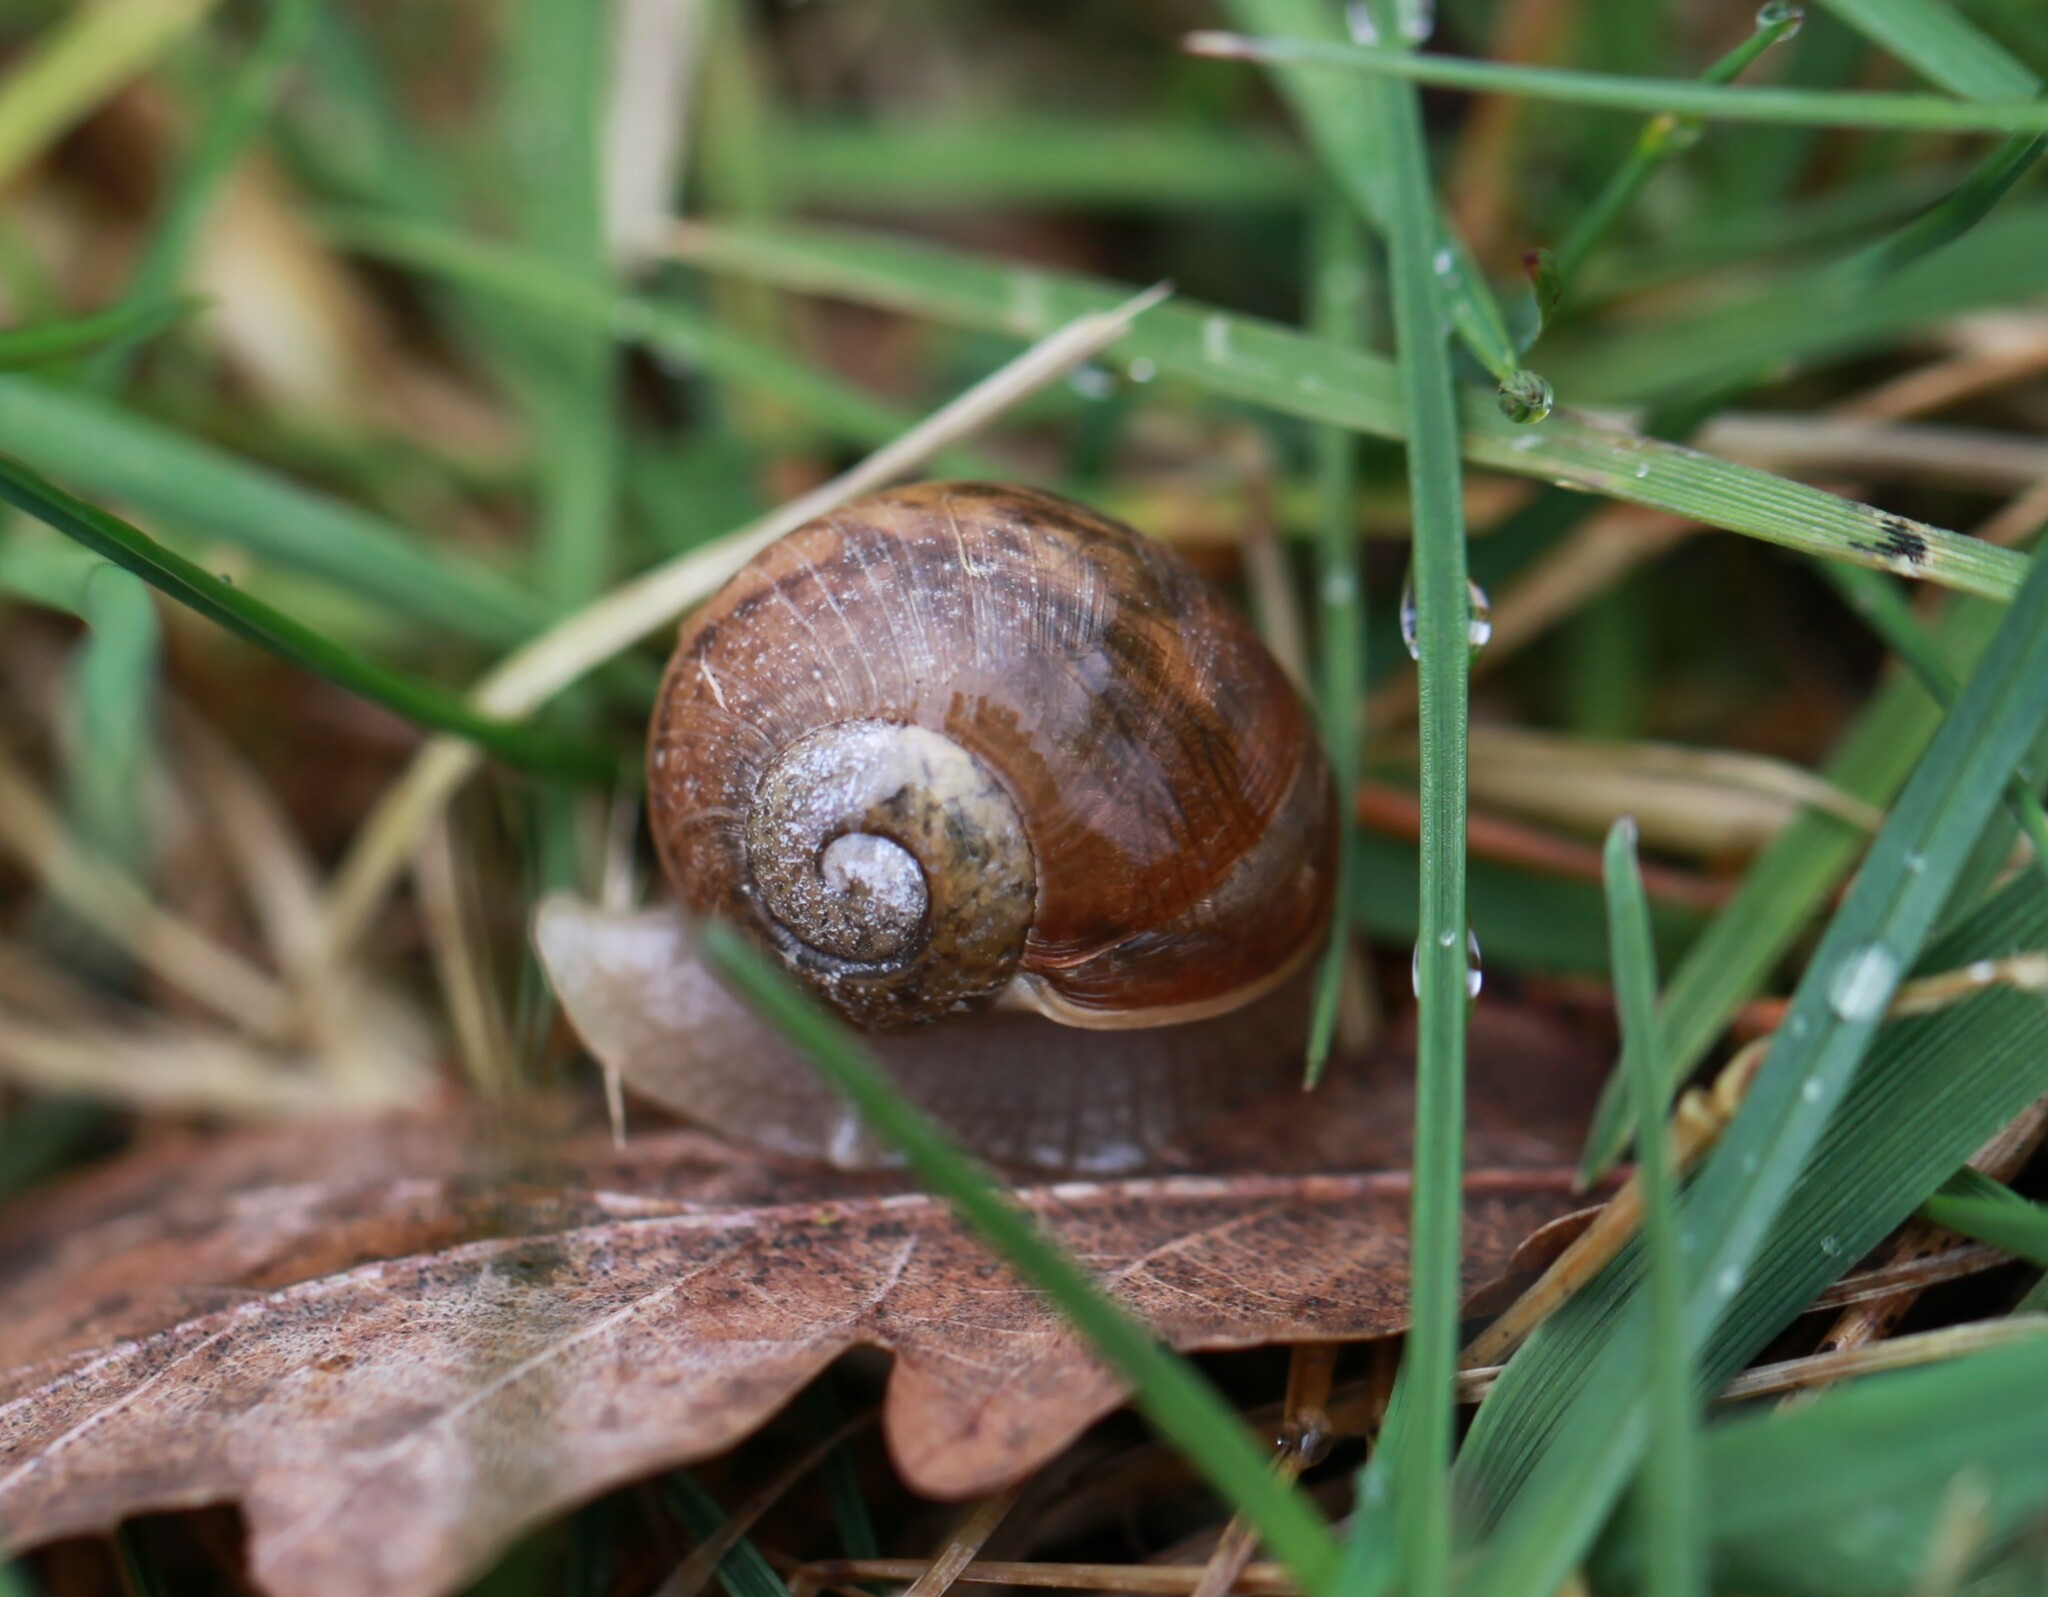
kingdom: Animalia
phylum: Mollusca
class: Gastropoda
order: Stylommatophora
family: Helicidae
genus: Helix
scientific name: Helix pomatia
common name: Roman snail
